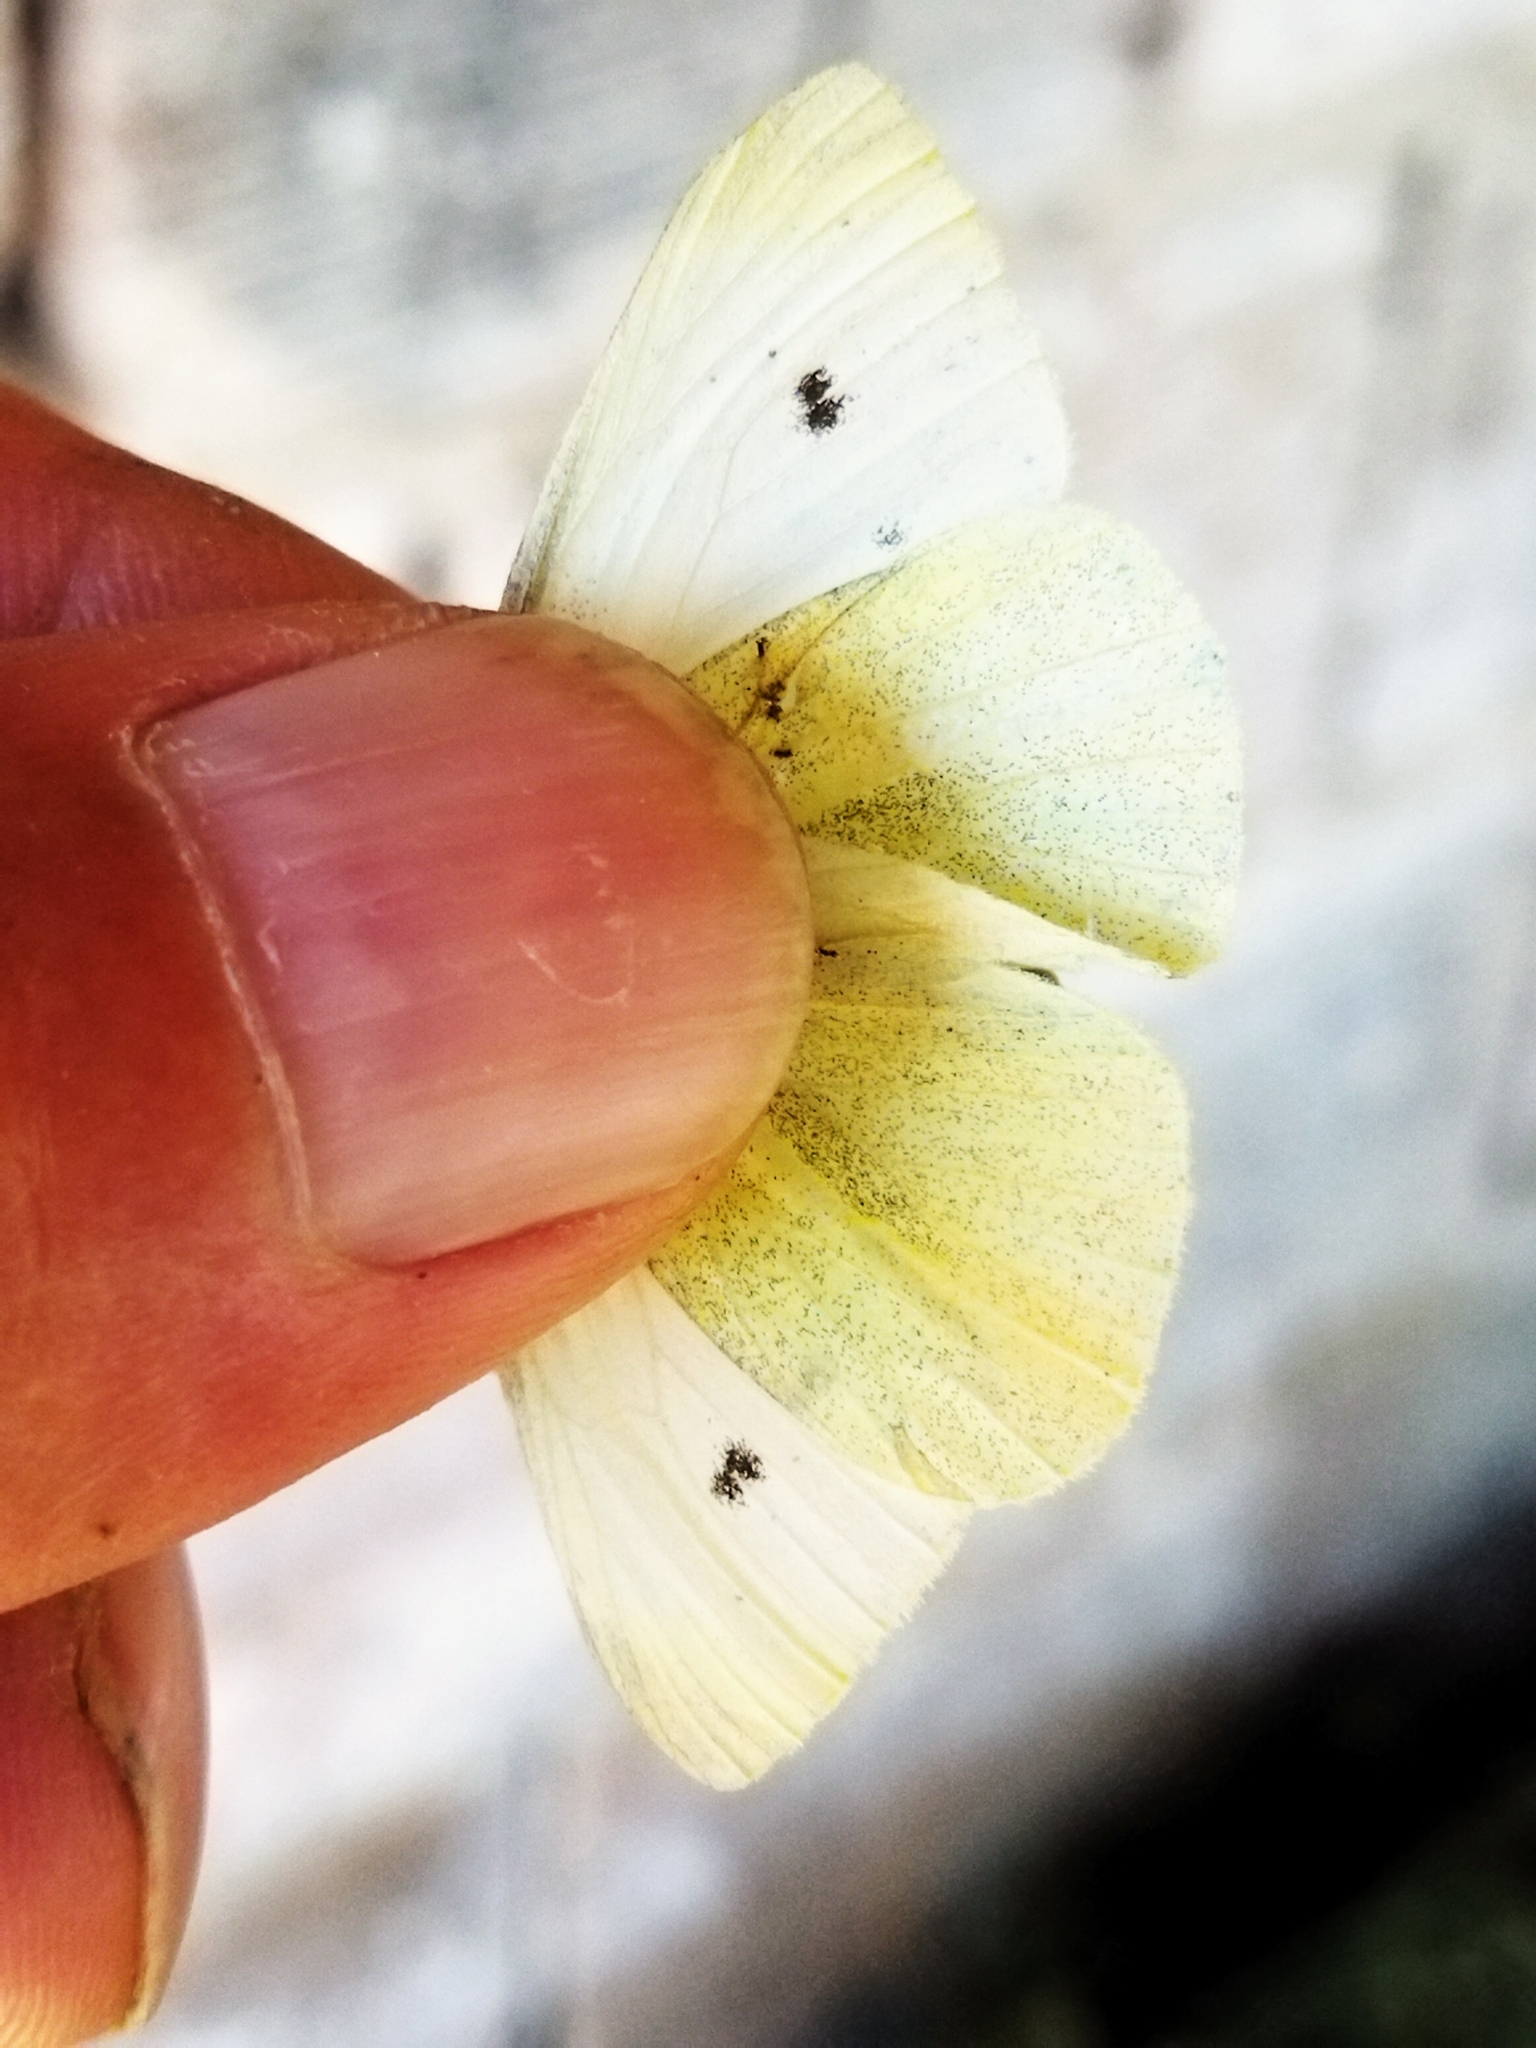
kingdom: Animalia
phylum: Arthropoda
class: Insecta
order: Lepidoptera
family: Pieridae
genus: Pieris
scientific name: Pieris rapae
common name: Small white
